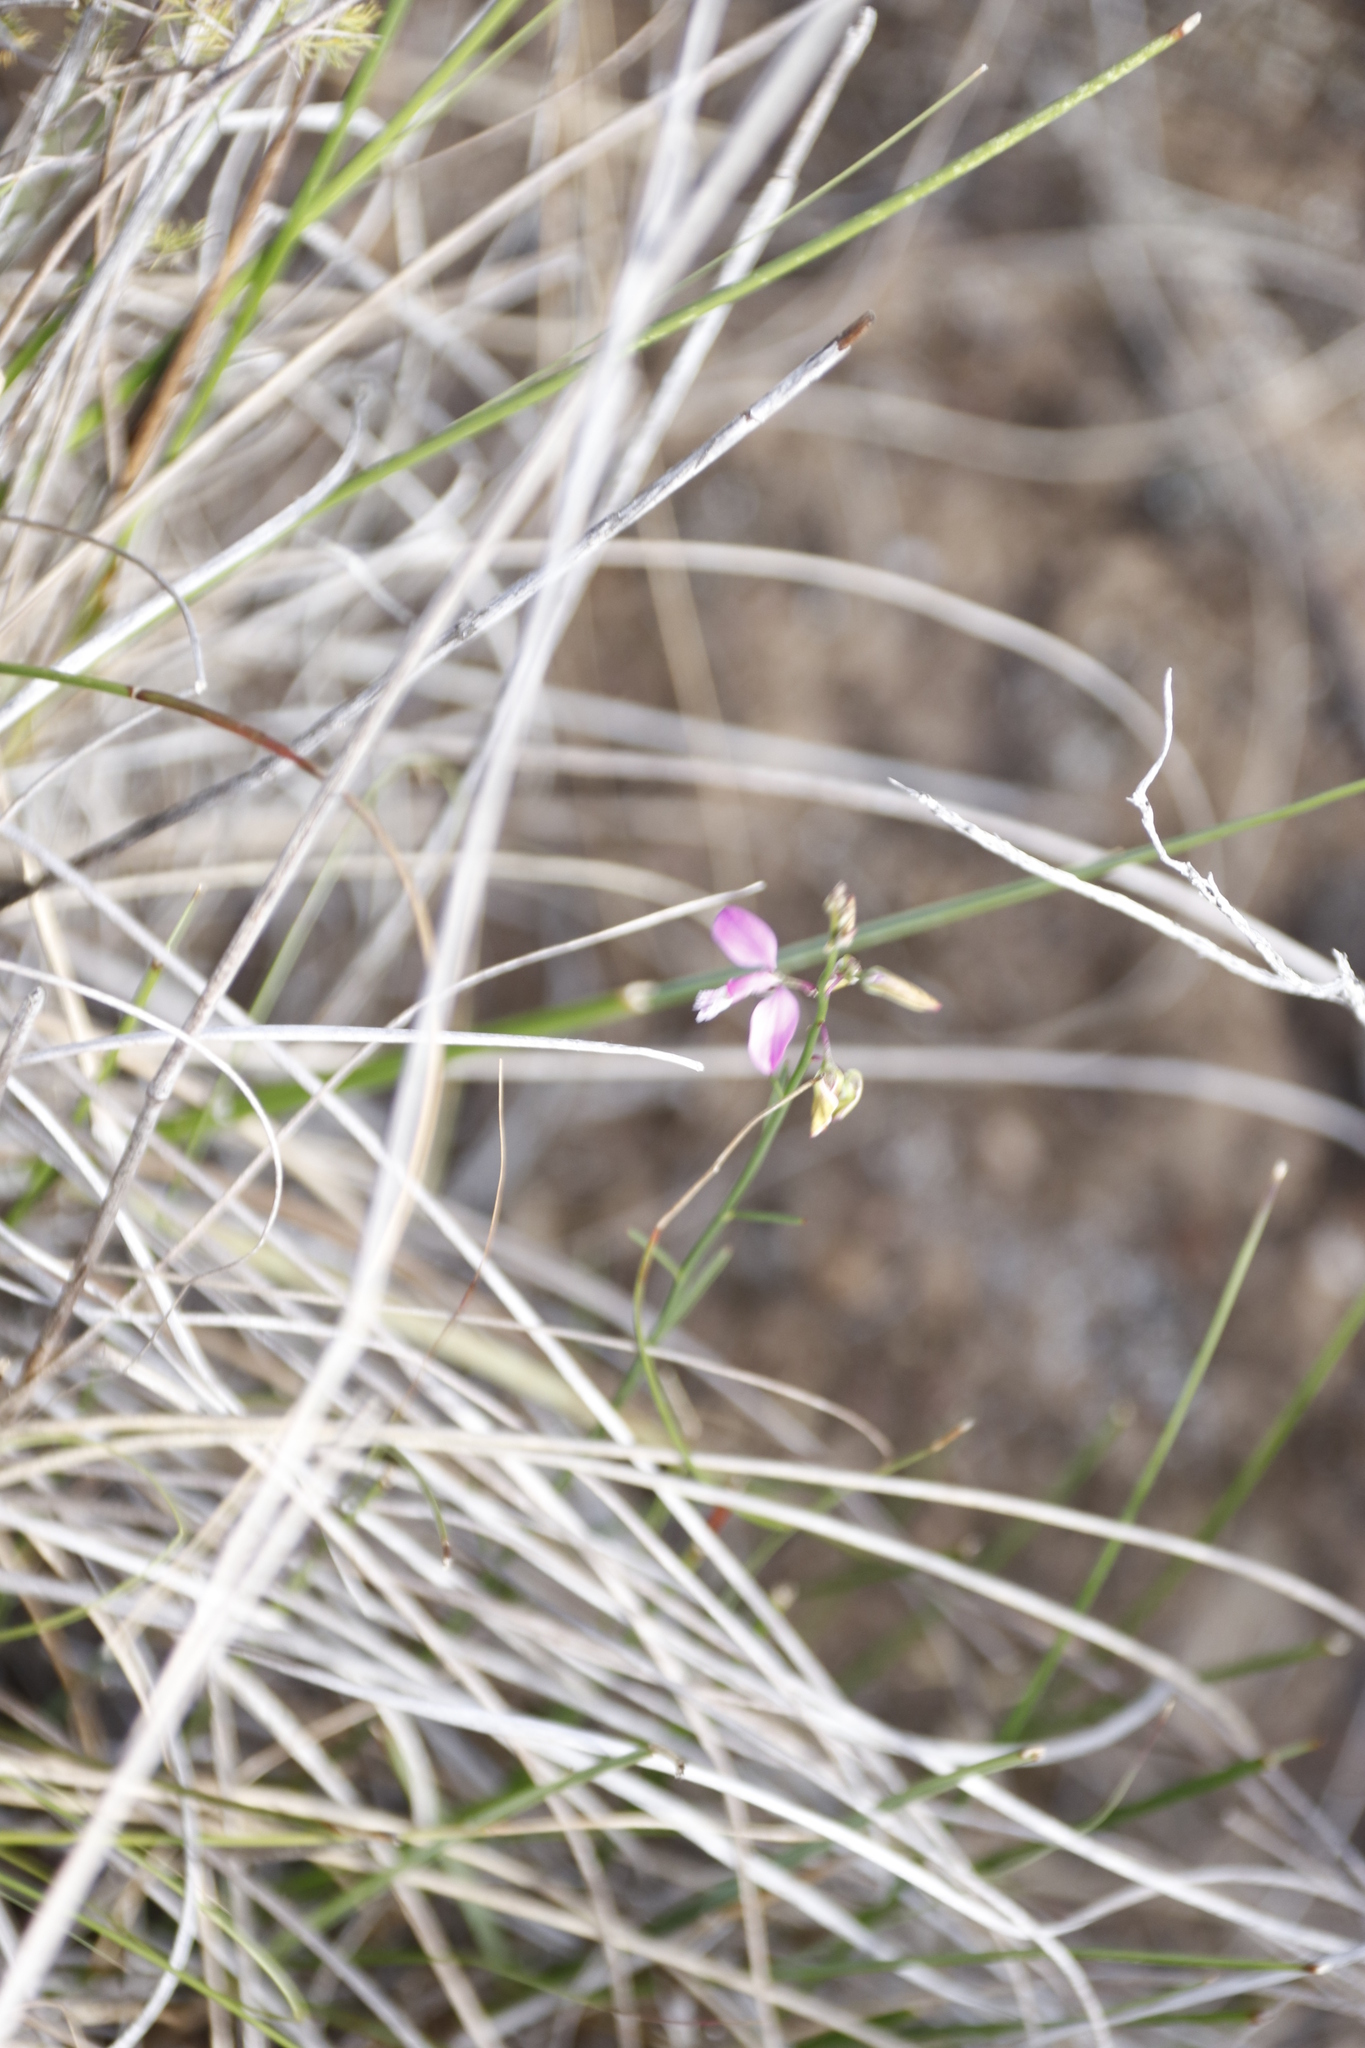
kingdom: Plantae
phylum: Tracheophyta
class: Magnoliopsida
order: Fabales
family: Polygalaceae
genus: Polygala
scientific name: Polygala garcini
